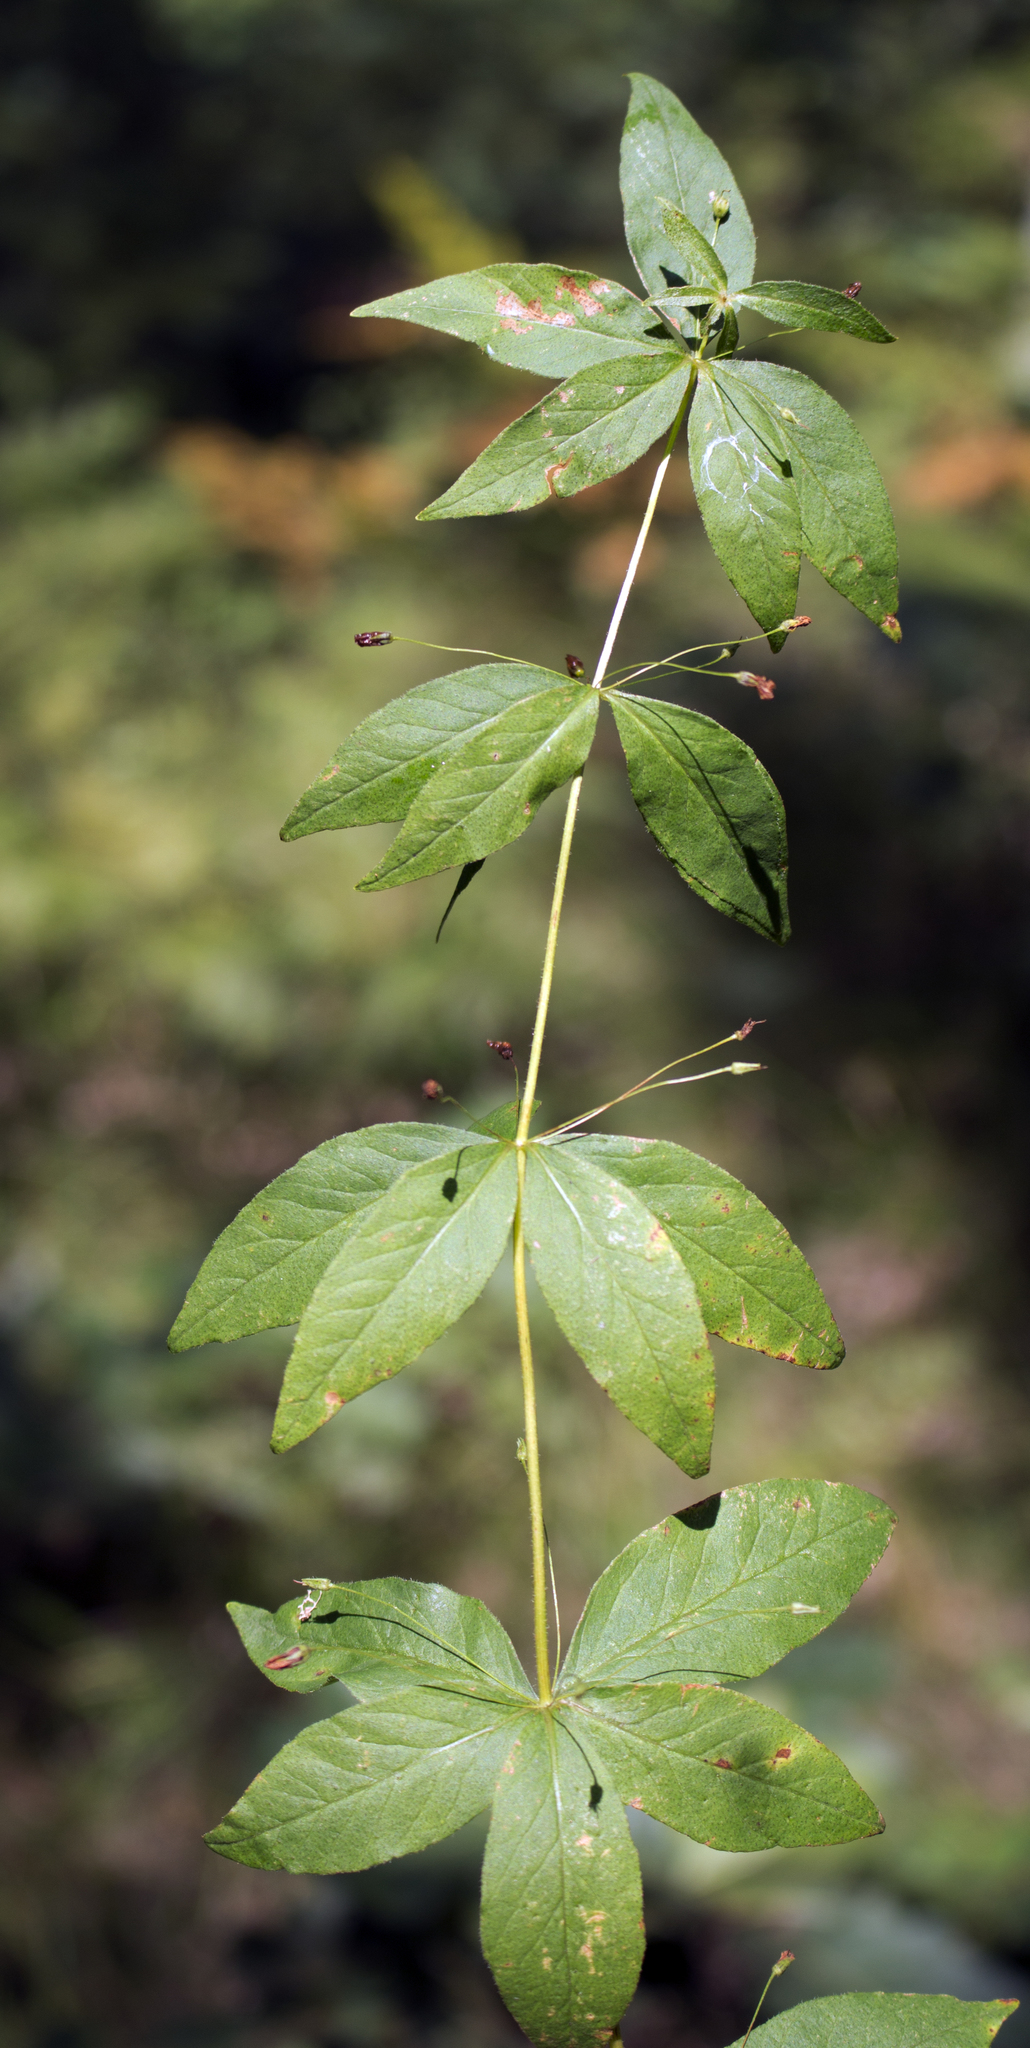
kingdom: Plantae
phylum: Tracheophyta
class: Magnoliopsida
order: Ericales
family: Primulaceae
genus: Lysimachia
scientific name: Lysimachia quadrifolia
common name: Whorled loosestrife
